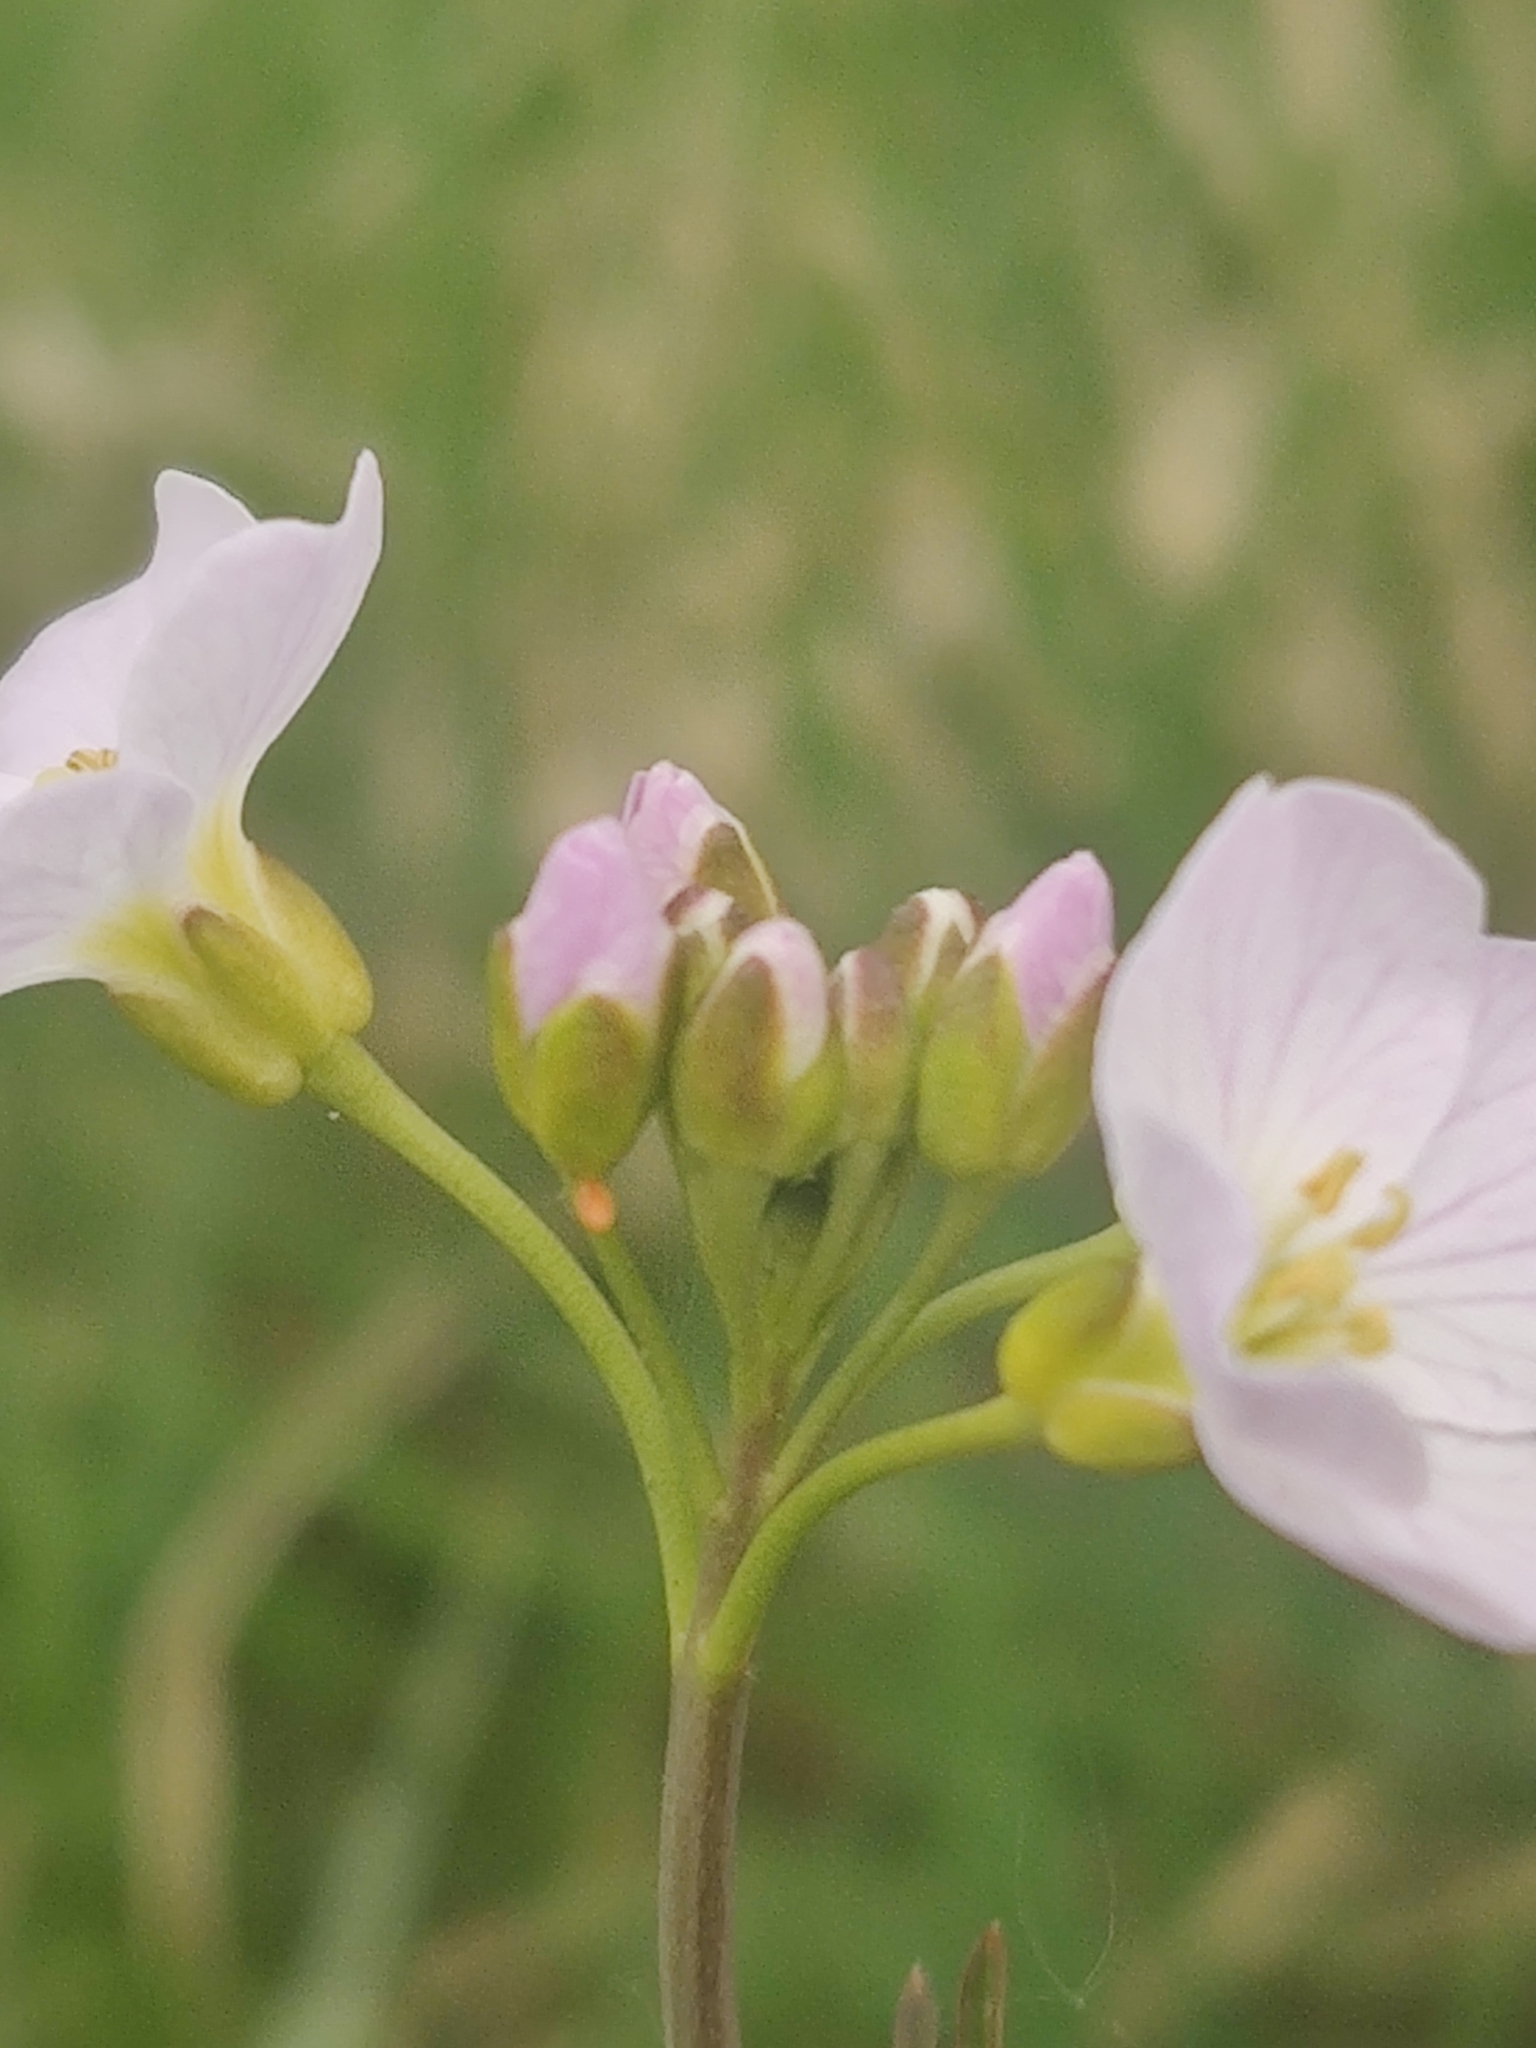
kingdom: Animalia
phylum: Arthropoda
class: Insecta
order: Lepidoptera
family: Pieridae
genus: Anthocharis
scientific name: Anthocharis cardamines
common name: Orange-tip
